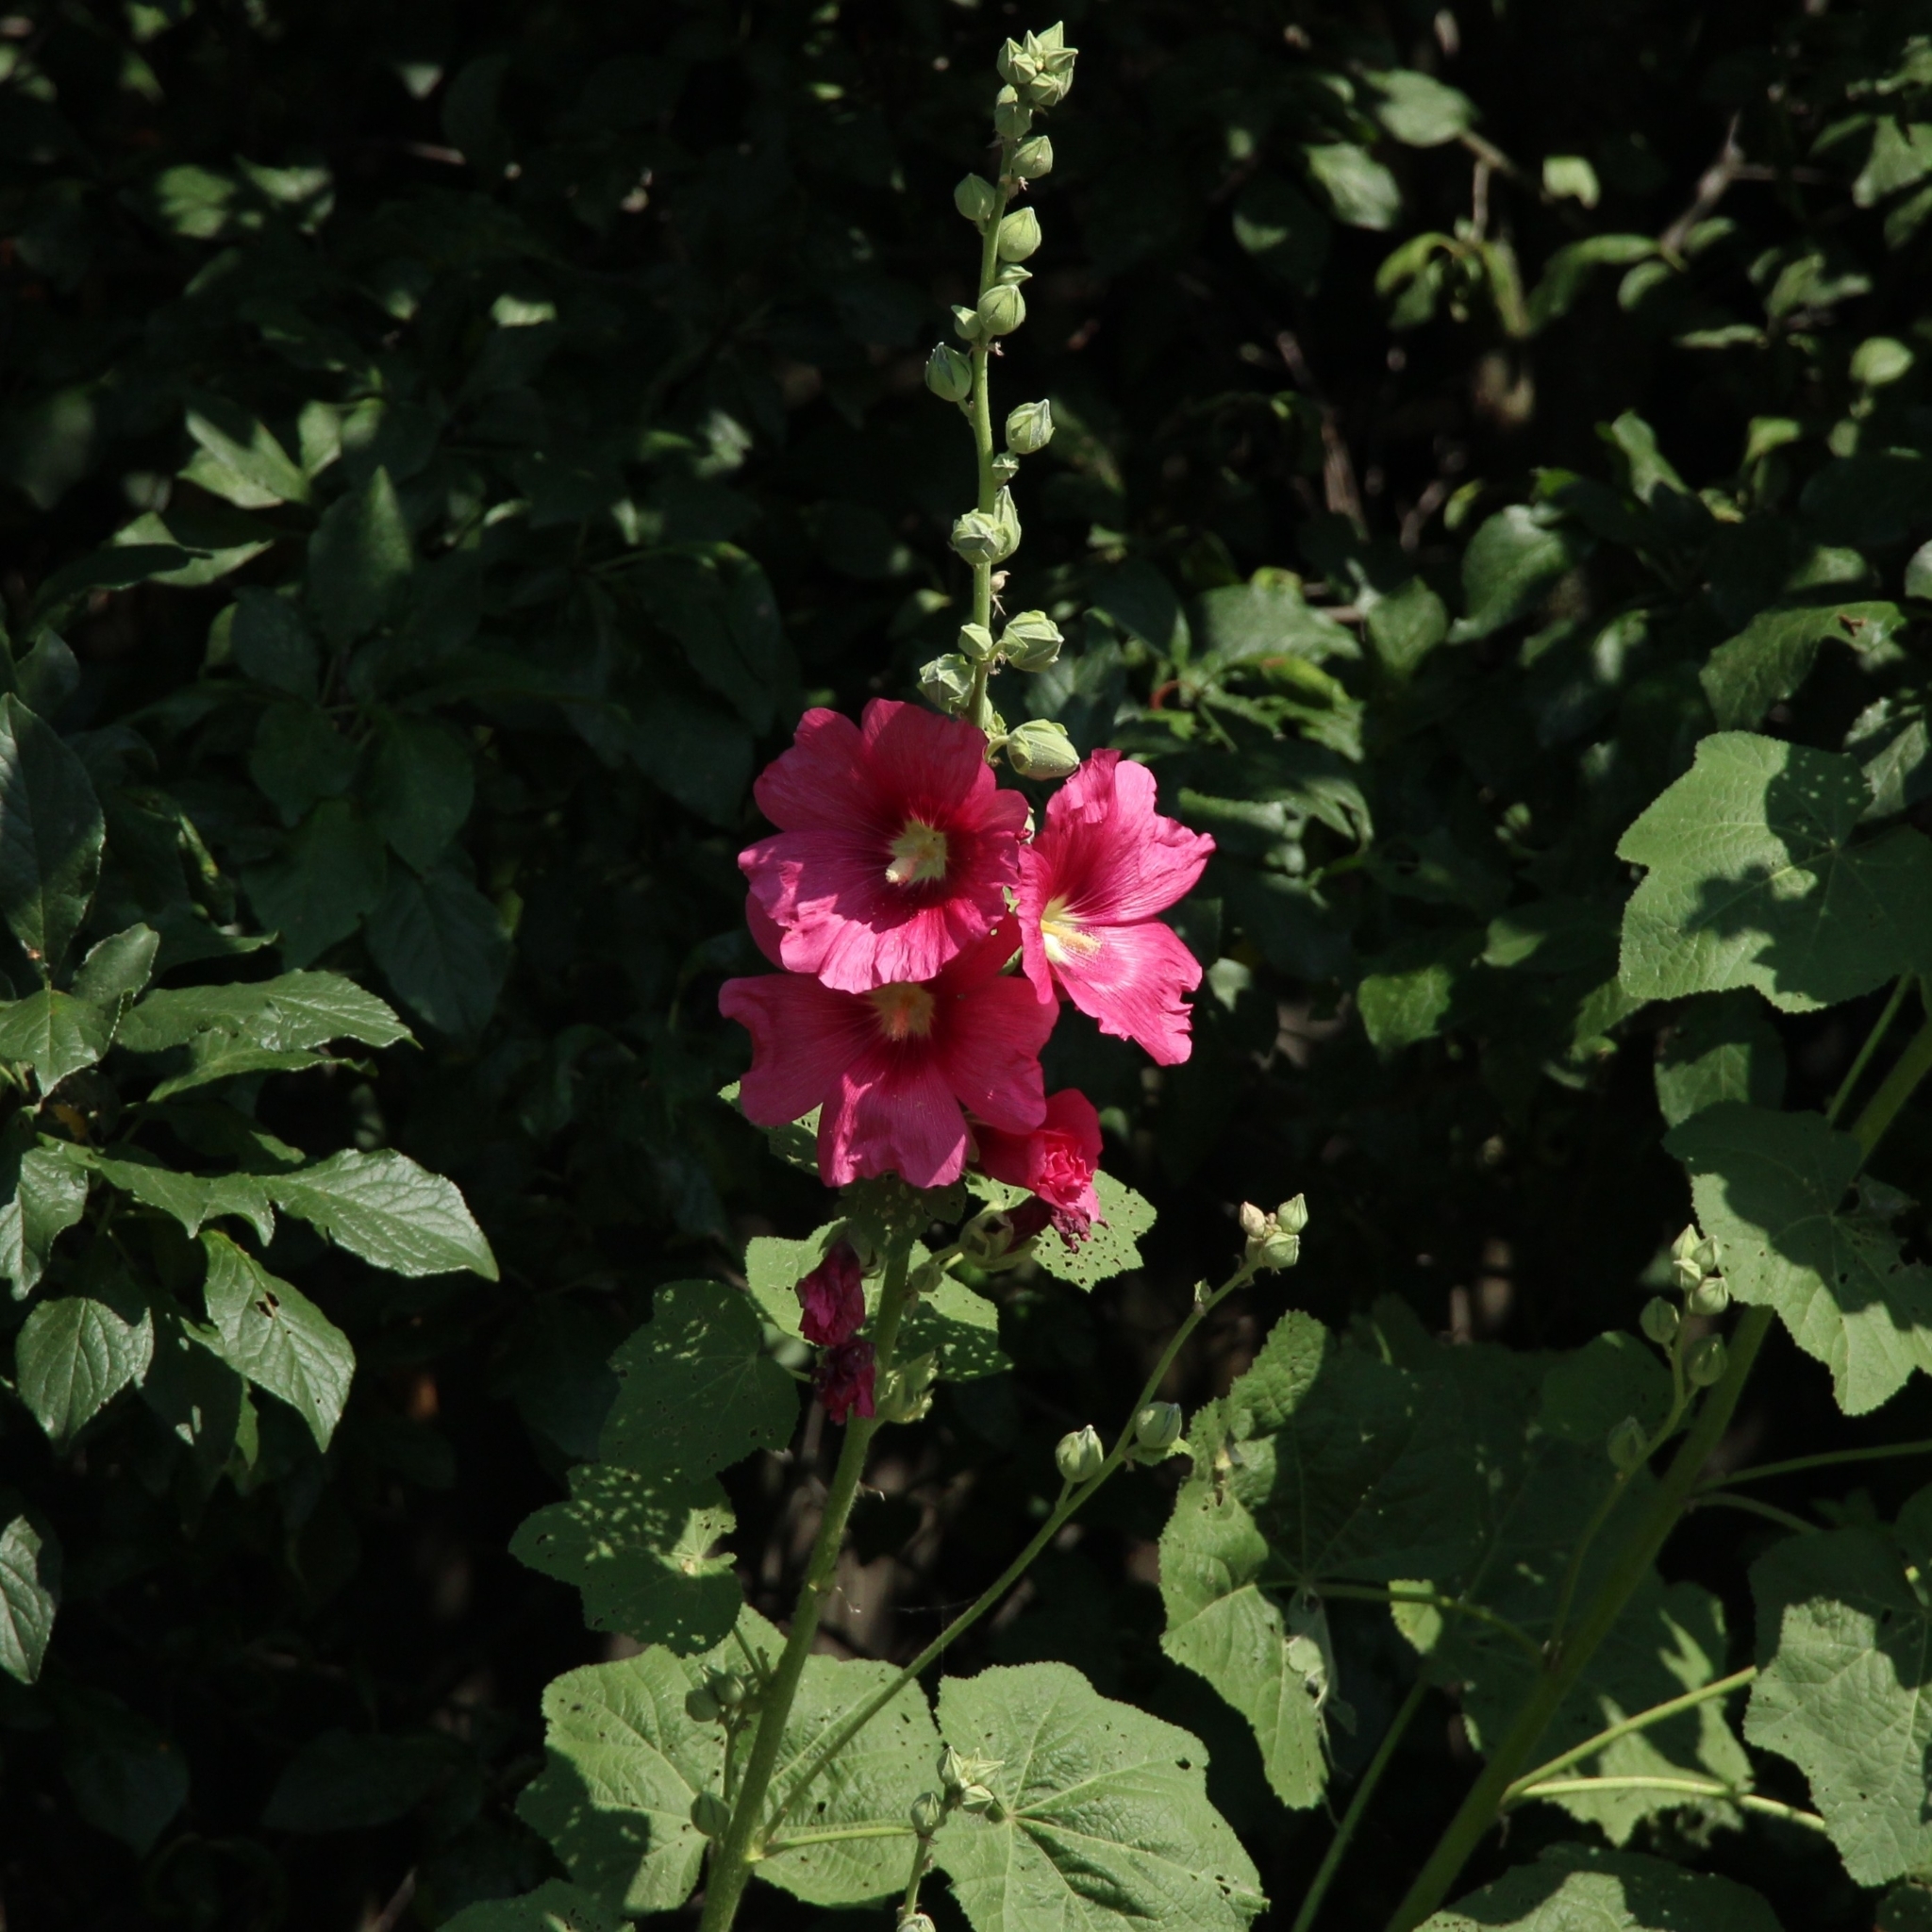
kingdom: Plantae
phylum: Tracheophyta
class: Magnoliopsida
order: Malvales
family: Malvaceae
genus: Alcea
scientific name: Alcea rosea
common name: Hollyhock
